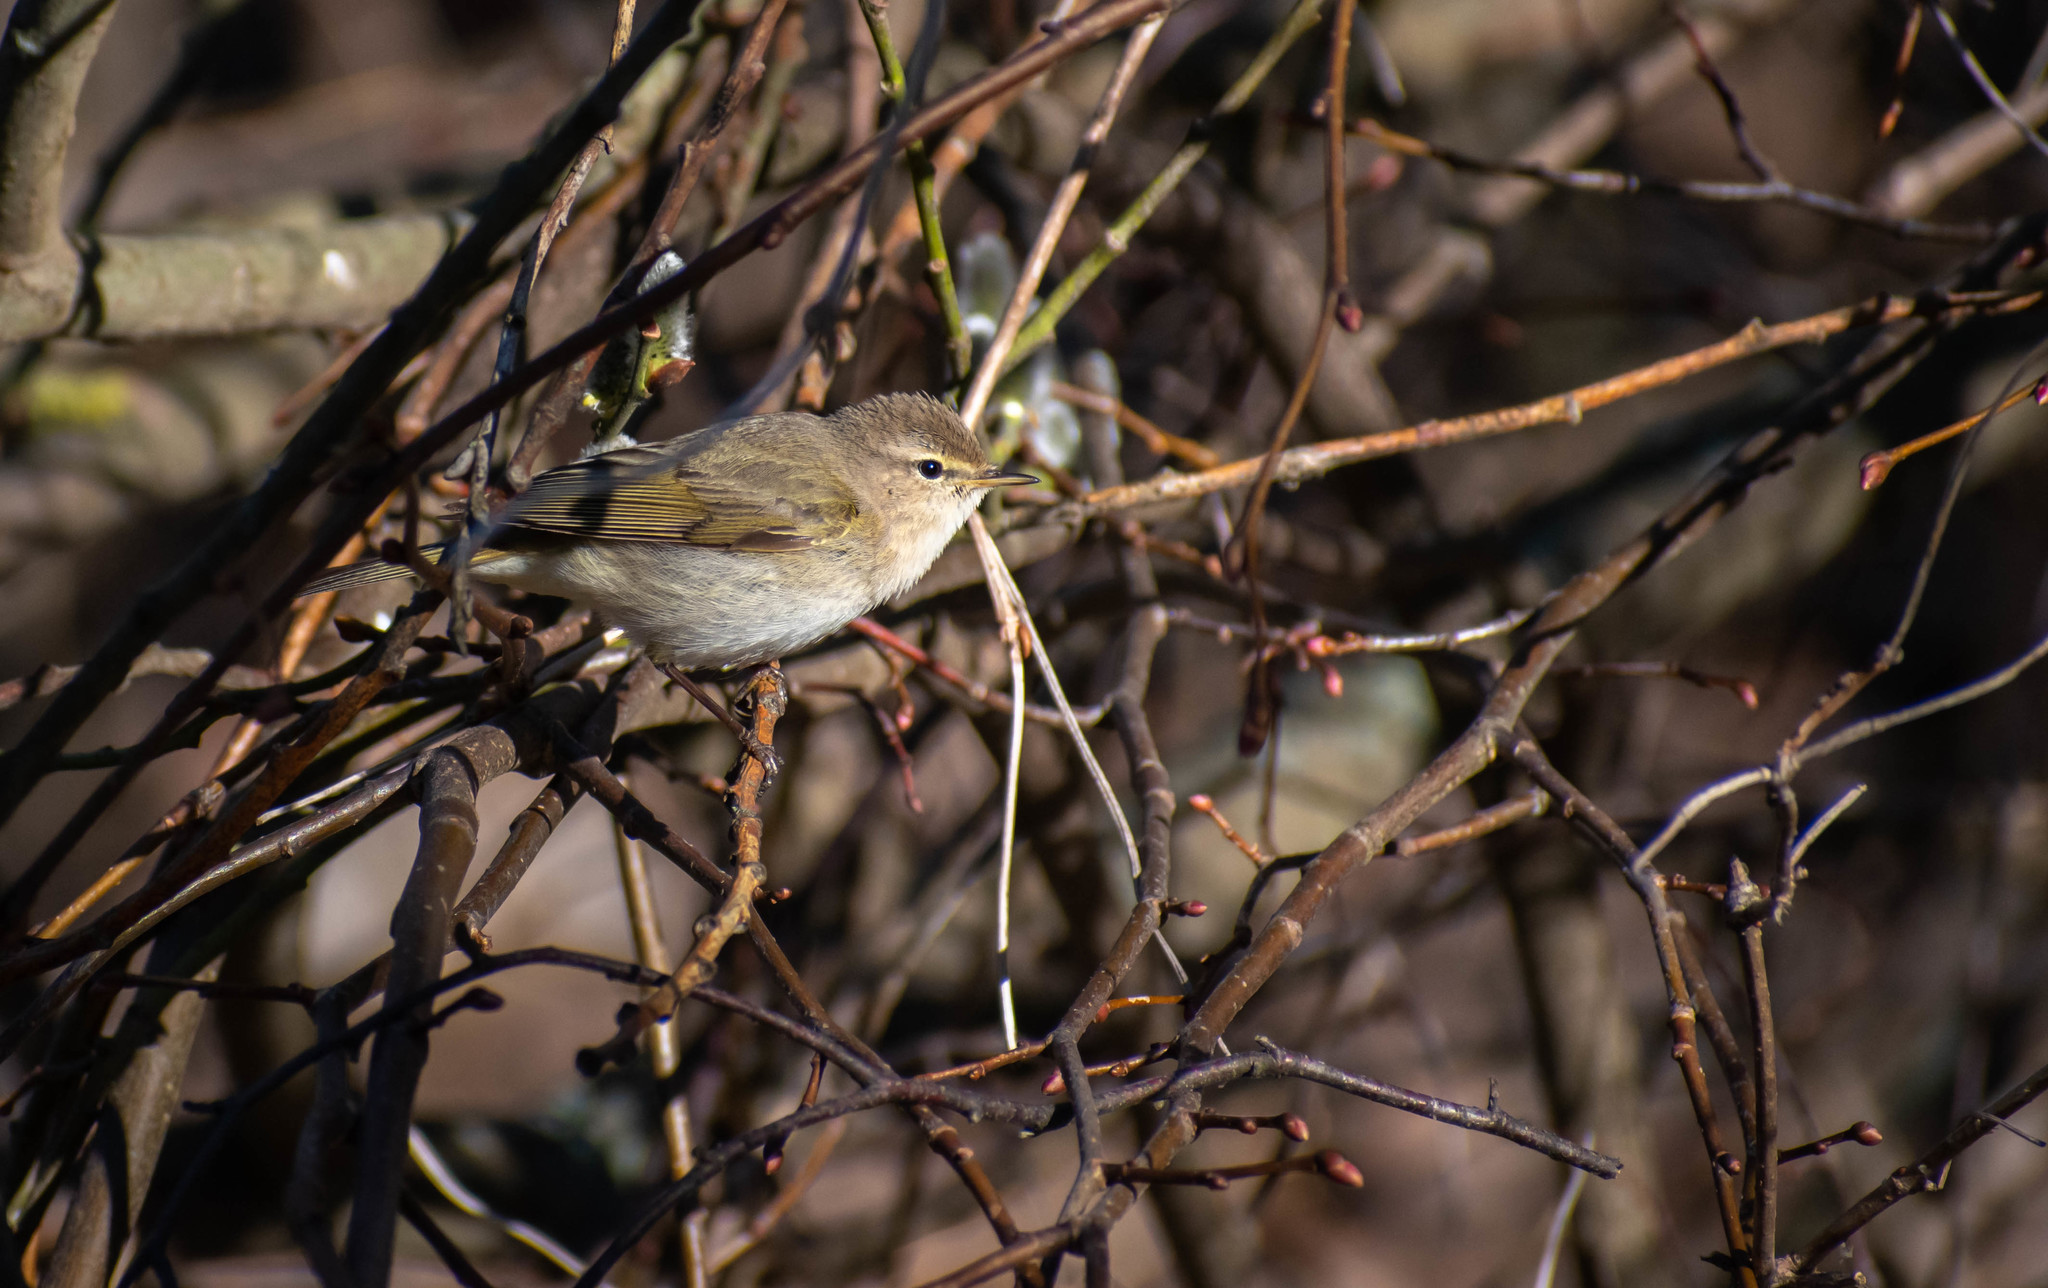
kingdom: Animalia
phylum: Chordata
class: Aves
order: Passeriformes
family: Phylloscopidae
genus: Phylloscopus
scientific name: Phylloscopus collybita
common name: Common chiffchaff
